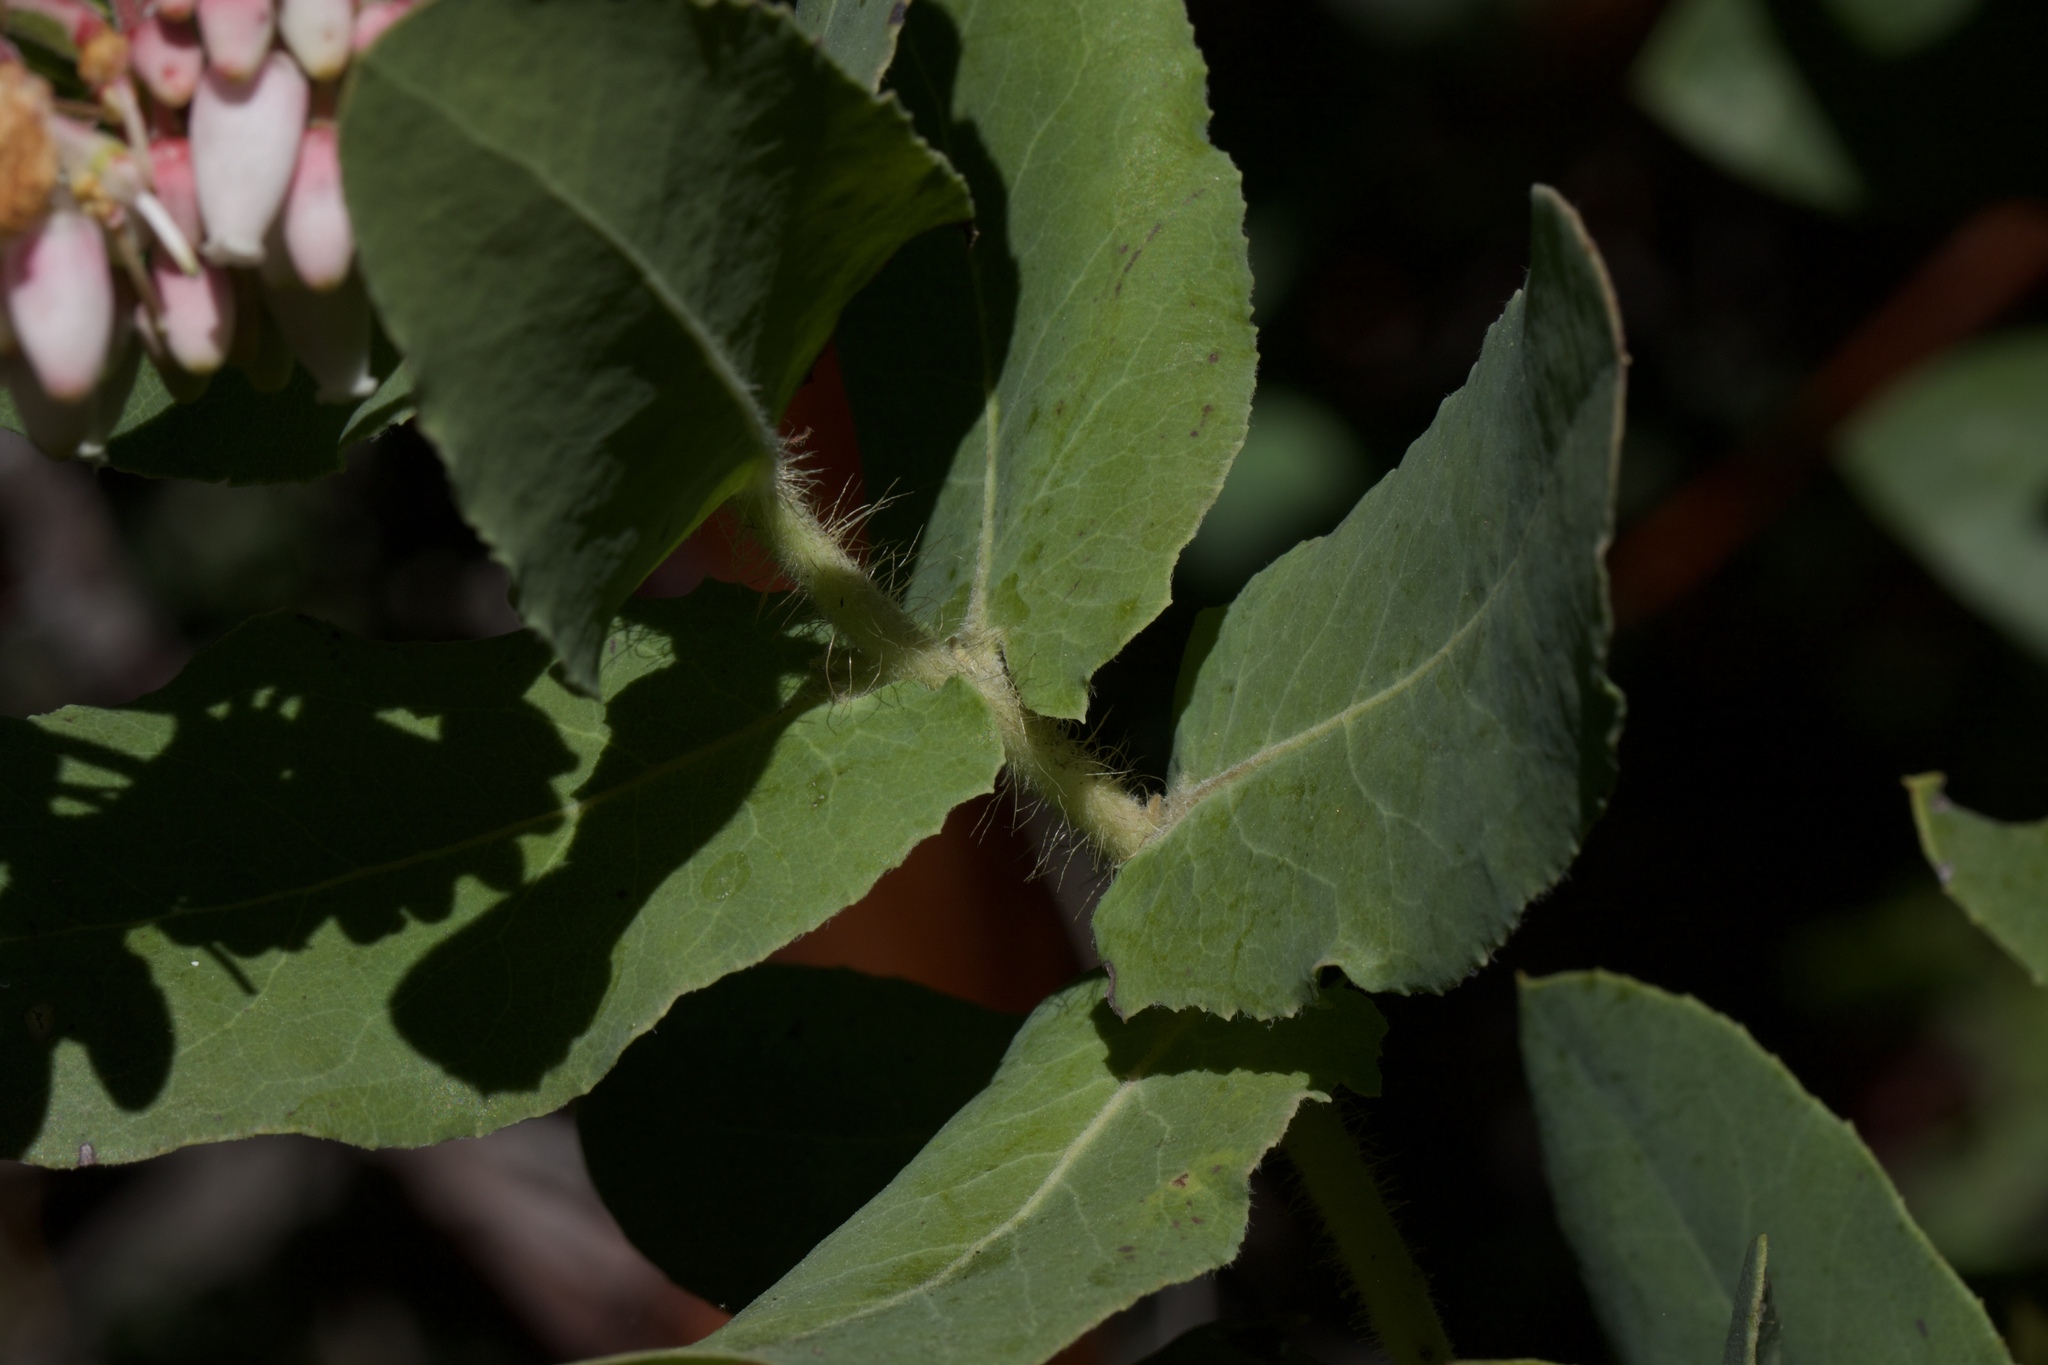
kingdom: Plantae
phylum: Tracheophyta
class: Magnoliopsida
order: Ericales
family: Ericaceae
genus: Arctostaphylos
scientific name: Arctostaphylos andersonii
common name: Santa cruz manzanita
